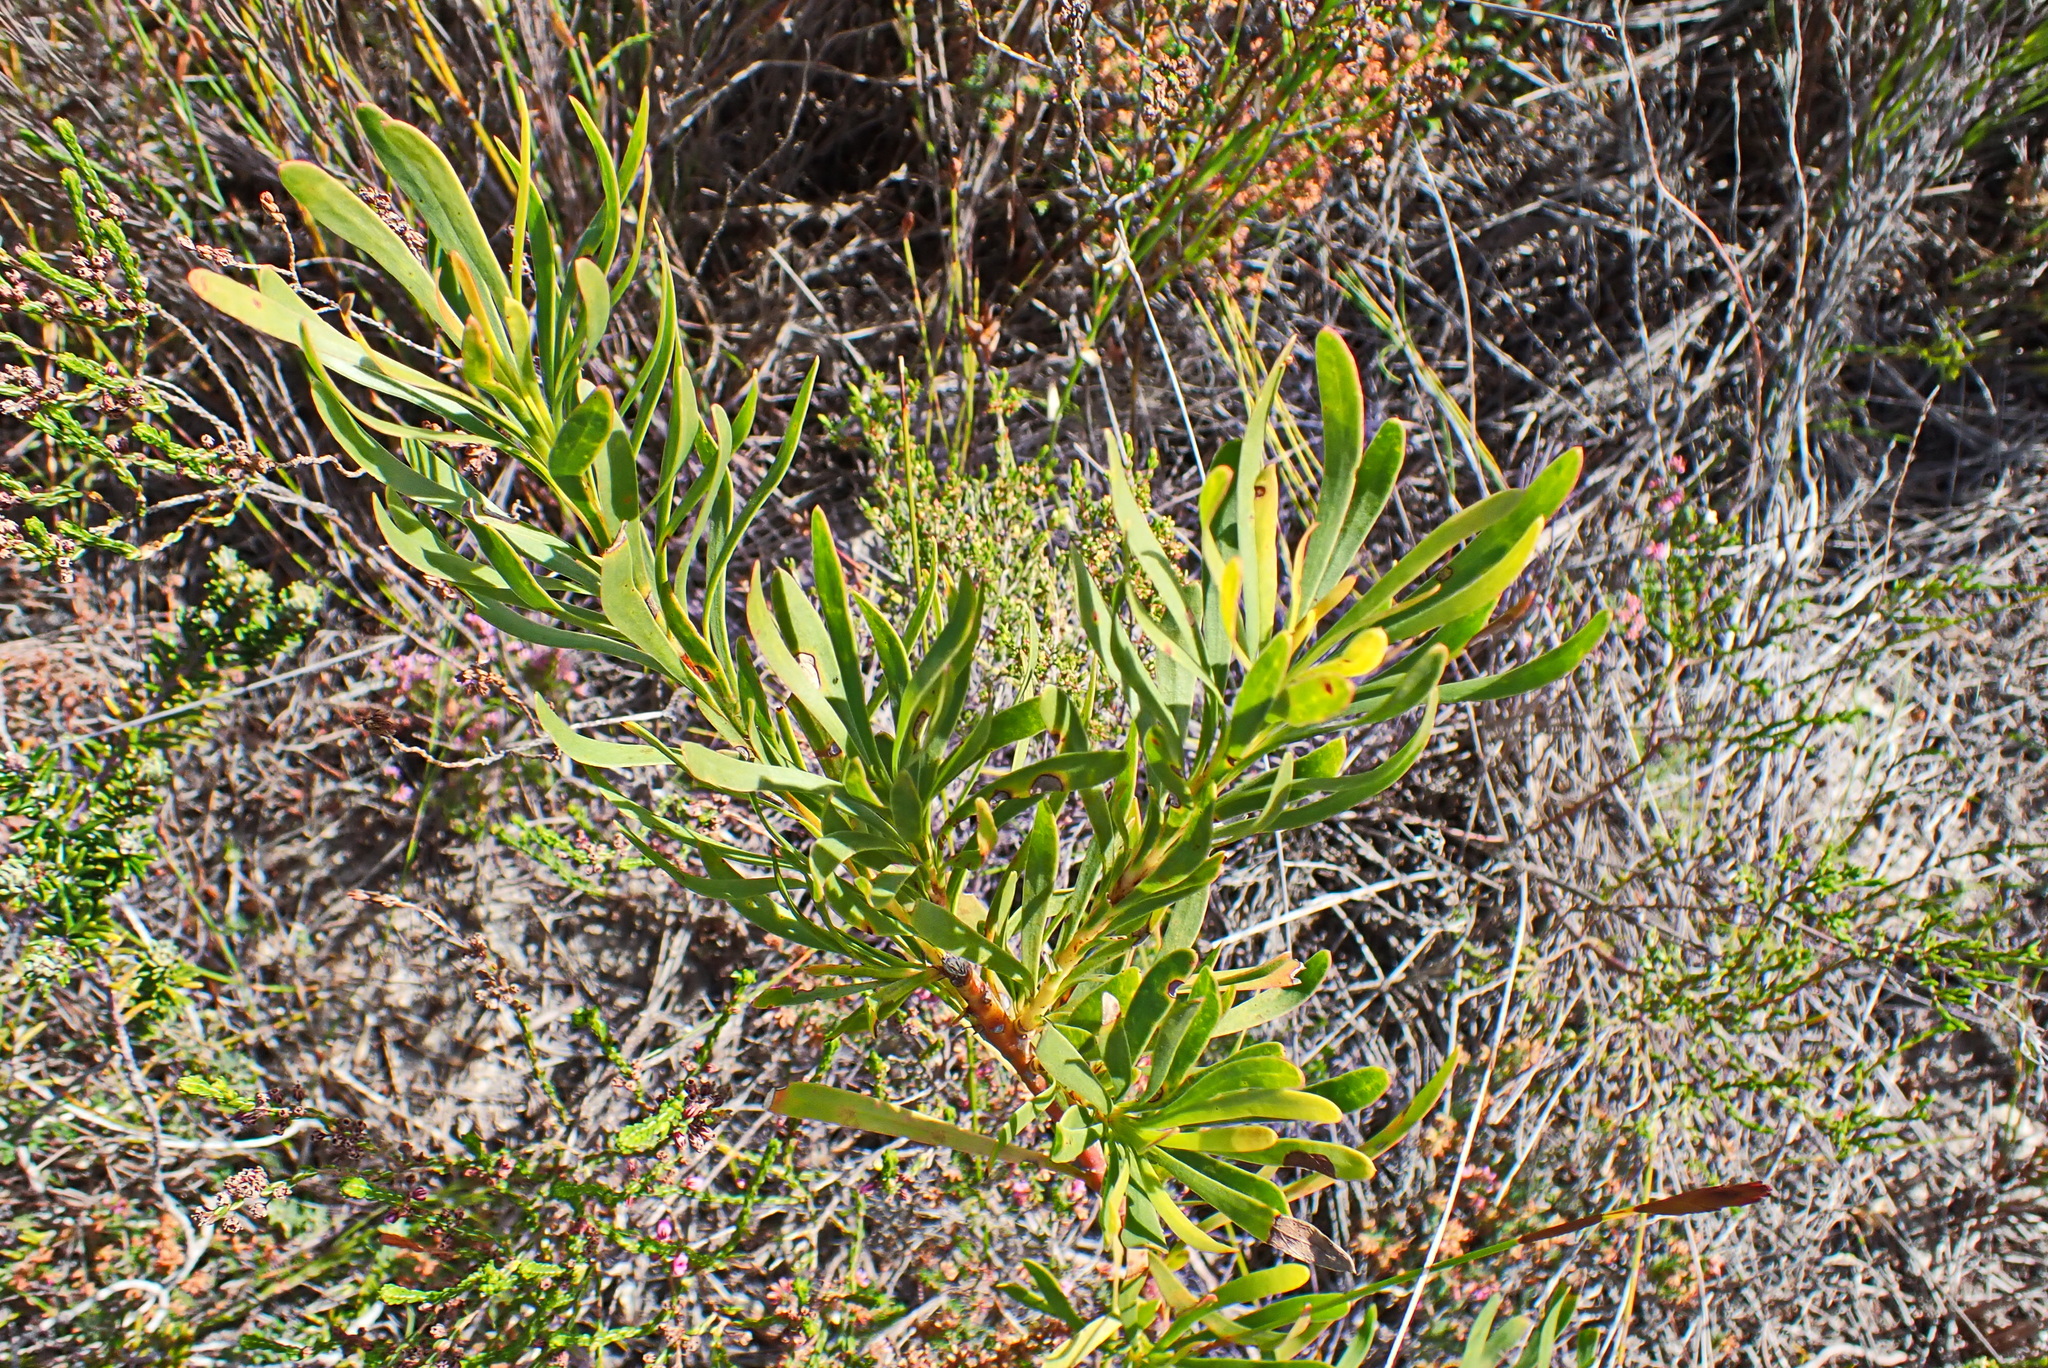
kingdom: Plantae
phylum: Tracheophyta
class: Magnoliopsida
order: Proteales
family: Proteaceae
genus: Aulax
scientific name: Aulax umbellata
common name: Broad-leaf featherbush
